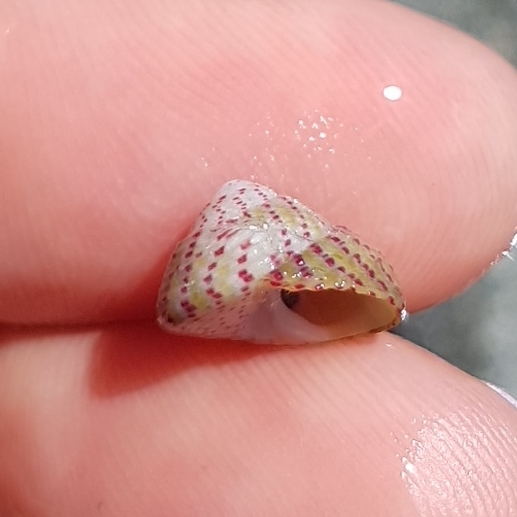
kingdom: Animalia
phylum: Mollusca
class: Gastropoda
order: Trochida
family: Trochidae
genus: Steromphala
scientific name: Steromphala rarilineata
